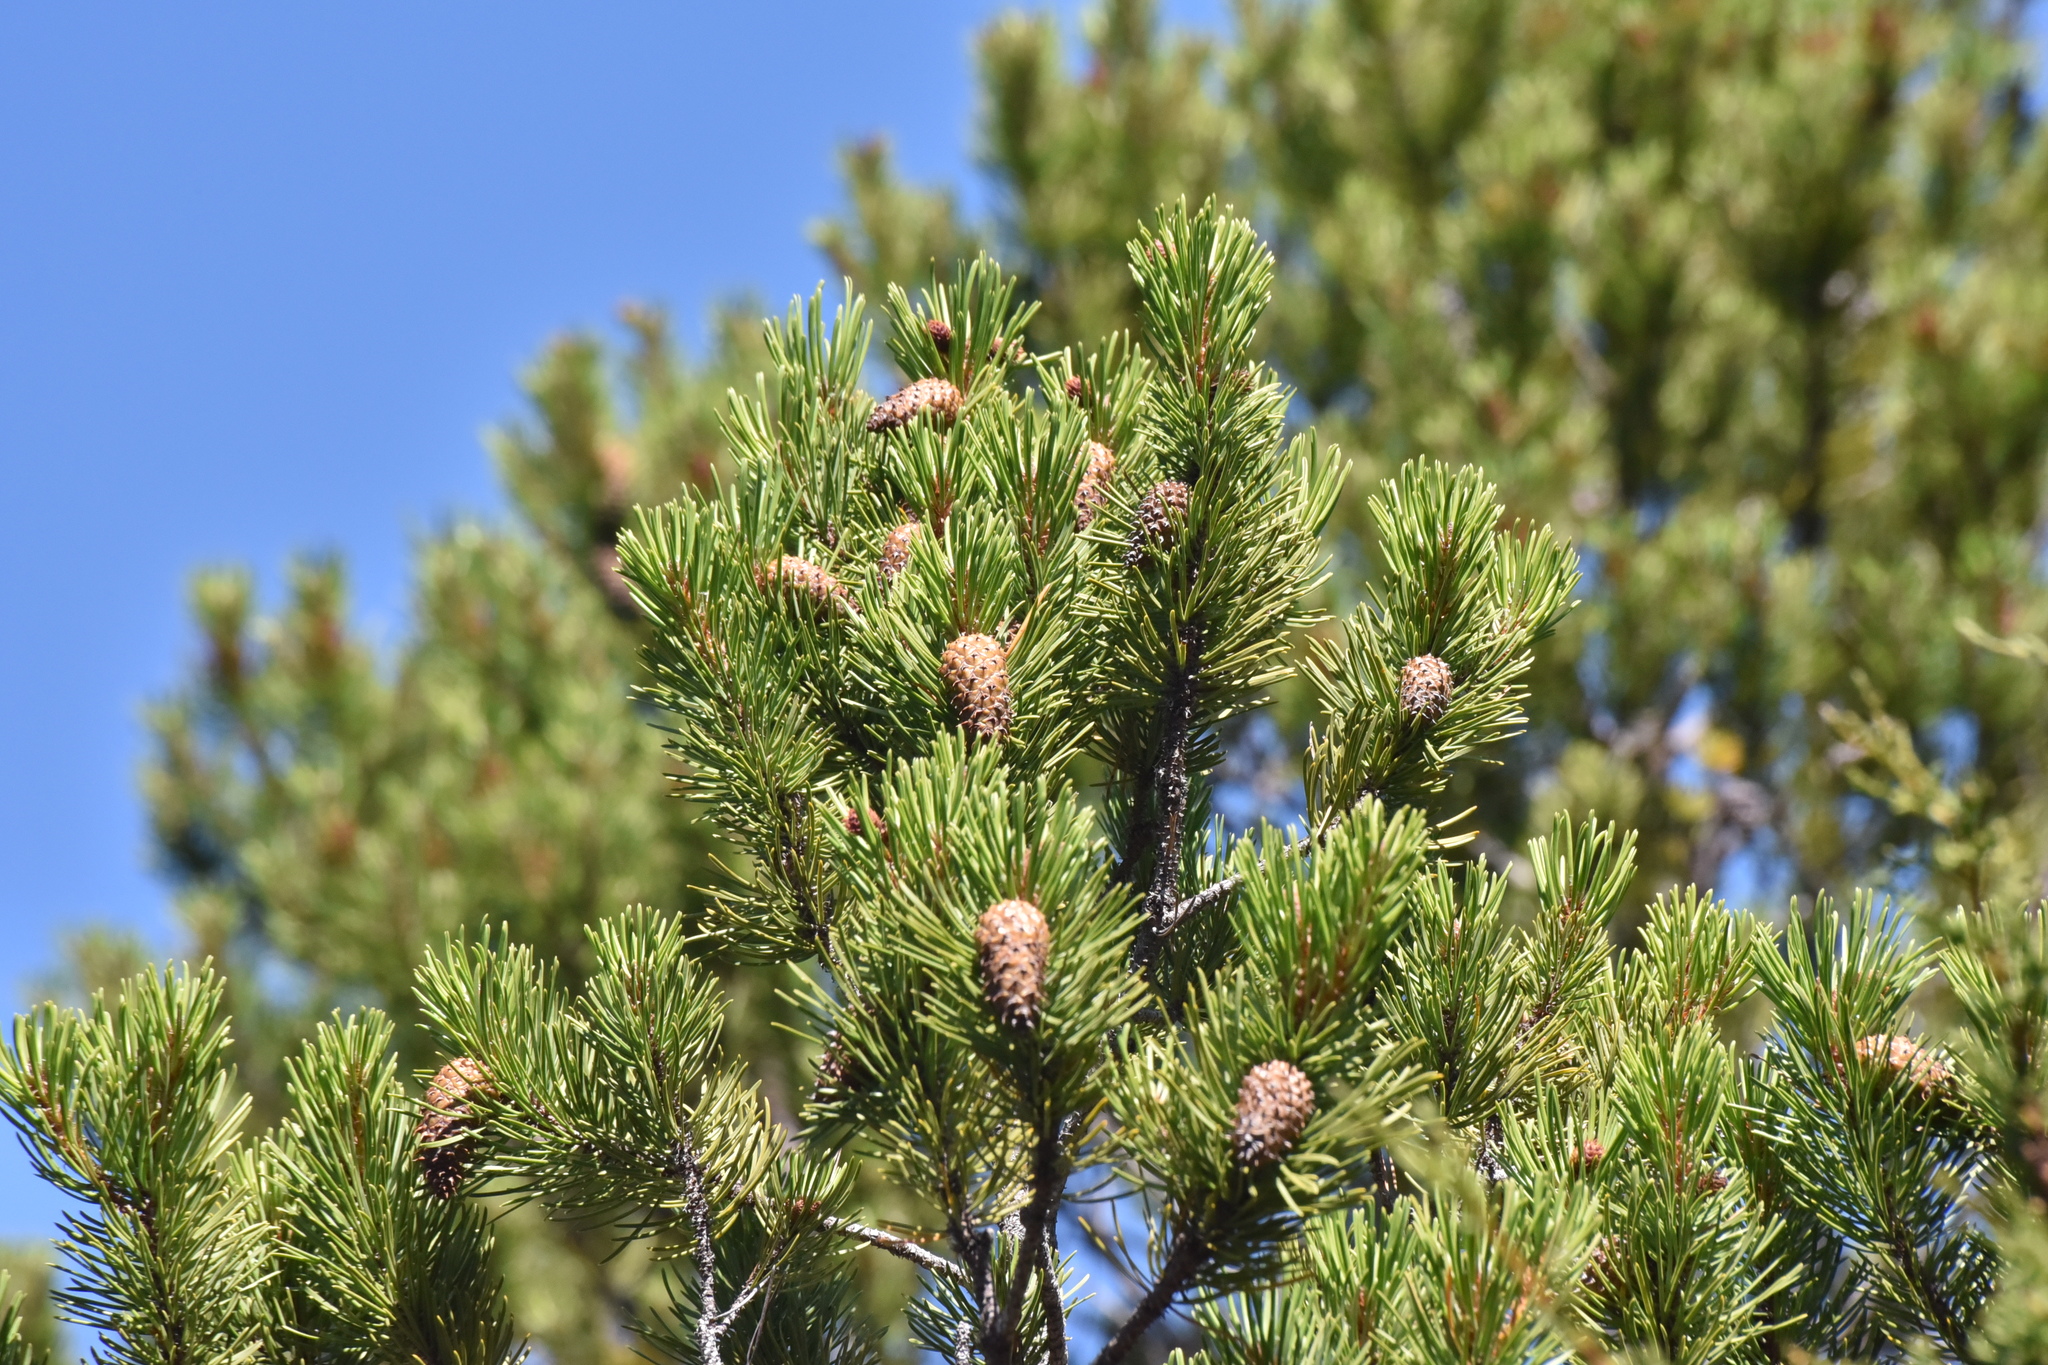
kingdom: Plantae
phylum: Tracheophyta
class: Pinopsida
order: Pinales
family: Pinaceae
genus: Pinus
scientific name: Pinus contorta
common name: Lodgepole pine
